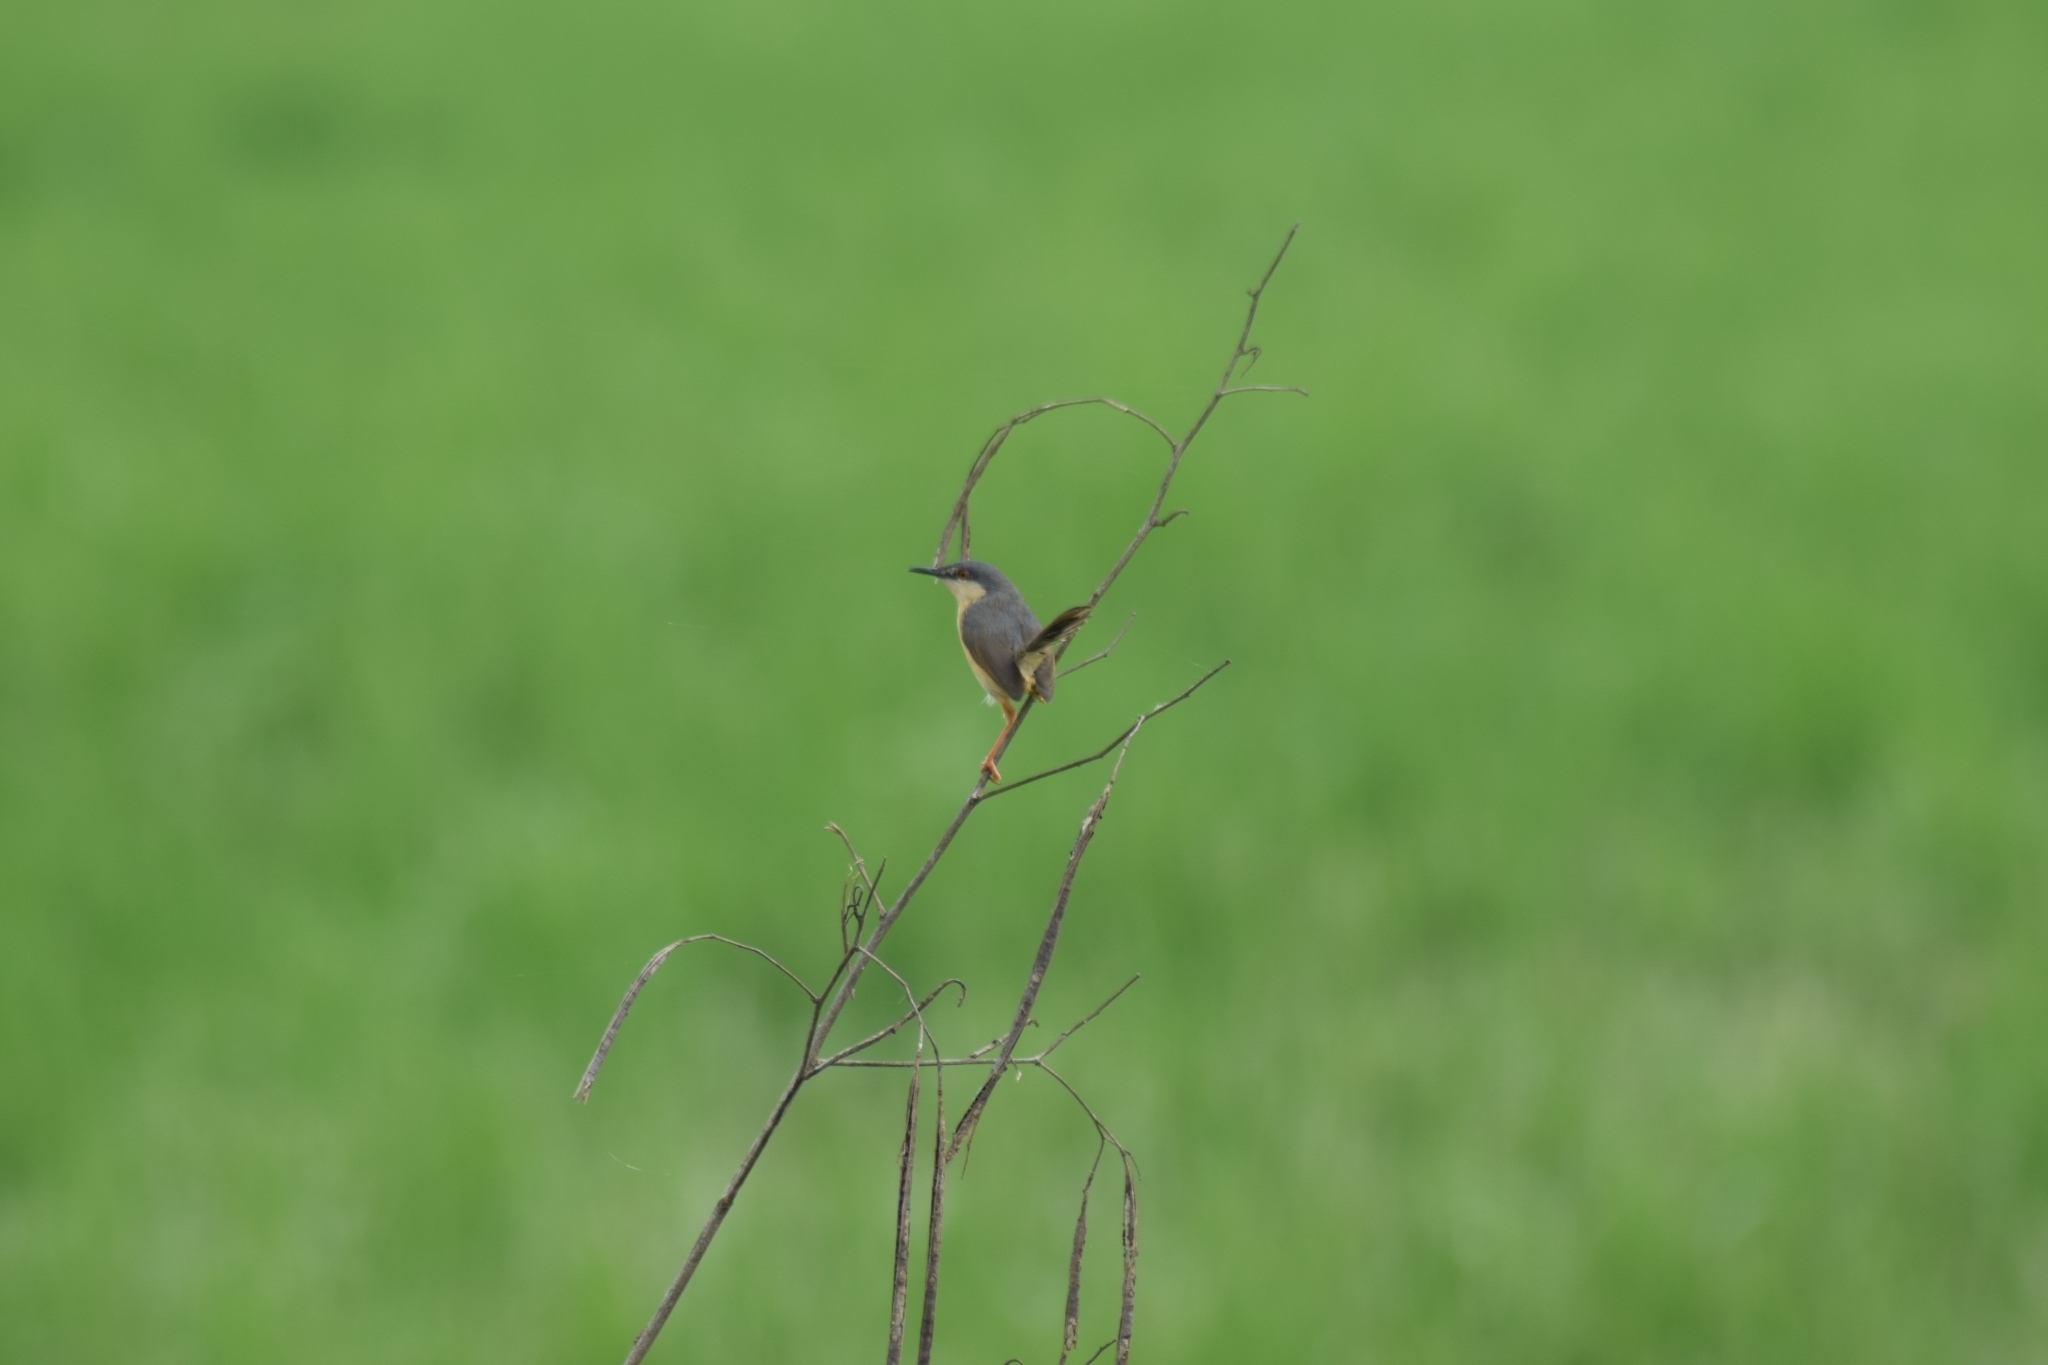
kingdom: Animalia
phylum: Chordata
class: Aves
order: Passeriformes
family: Cisticolidae
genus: Prinia
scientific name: Prinia socialis
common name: Ashy prinia
